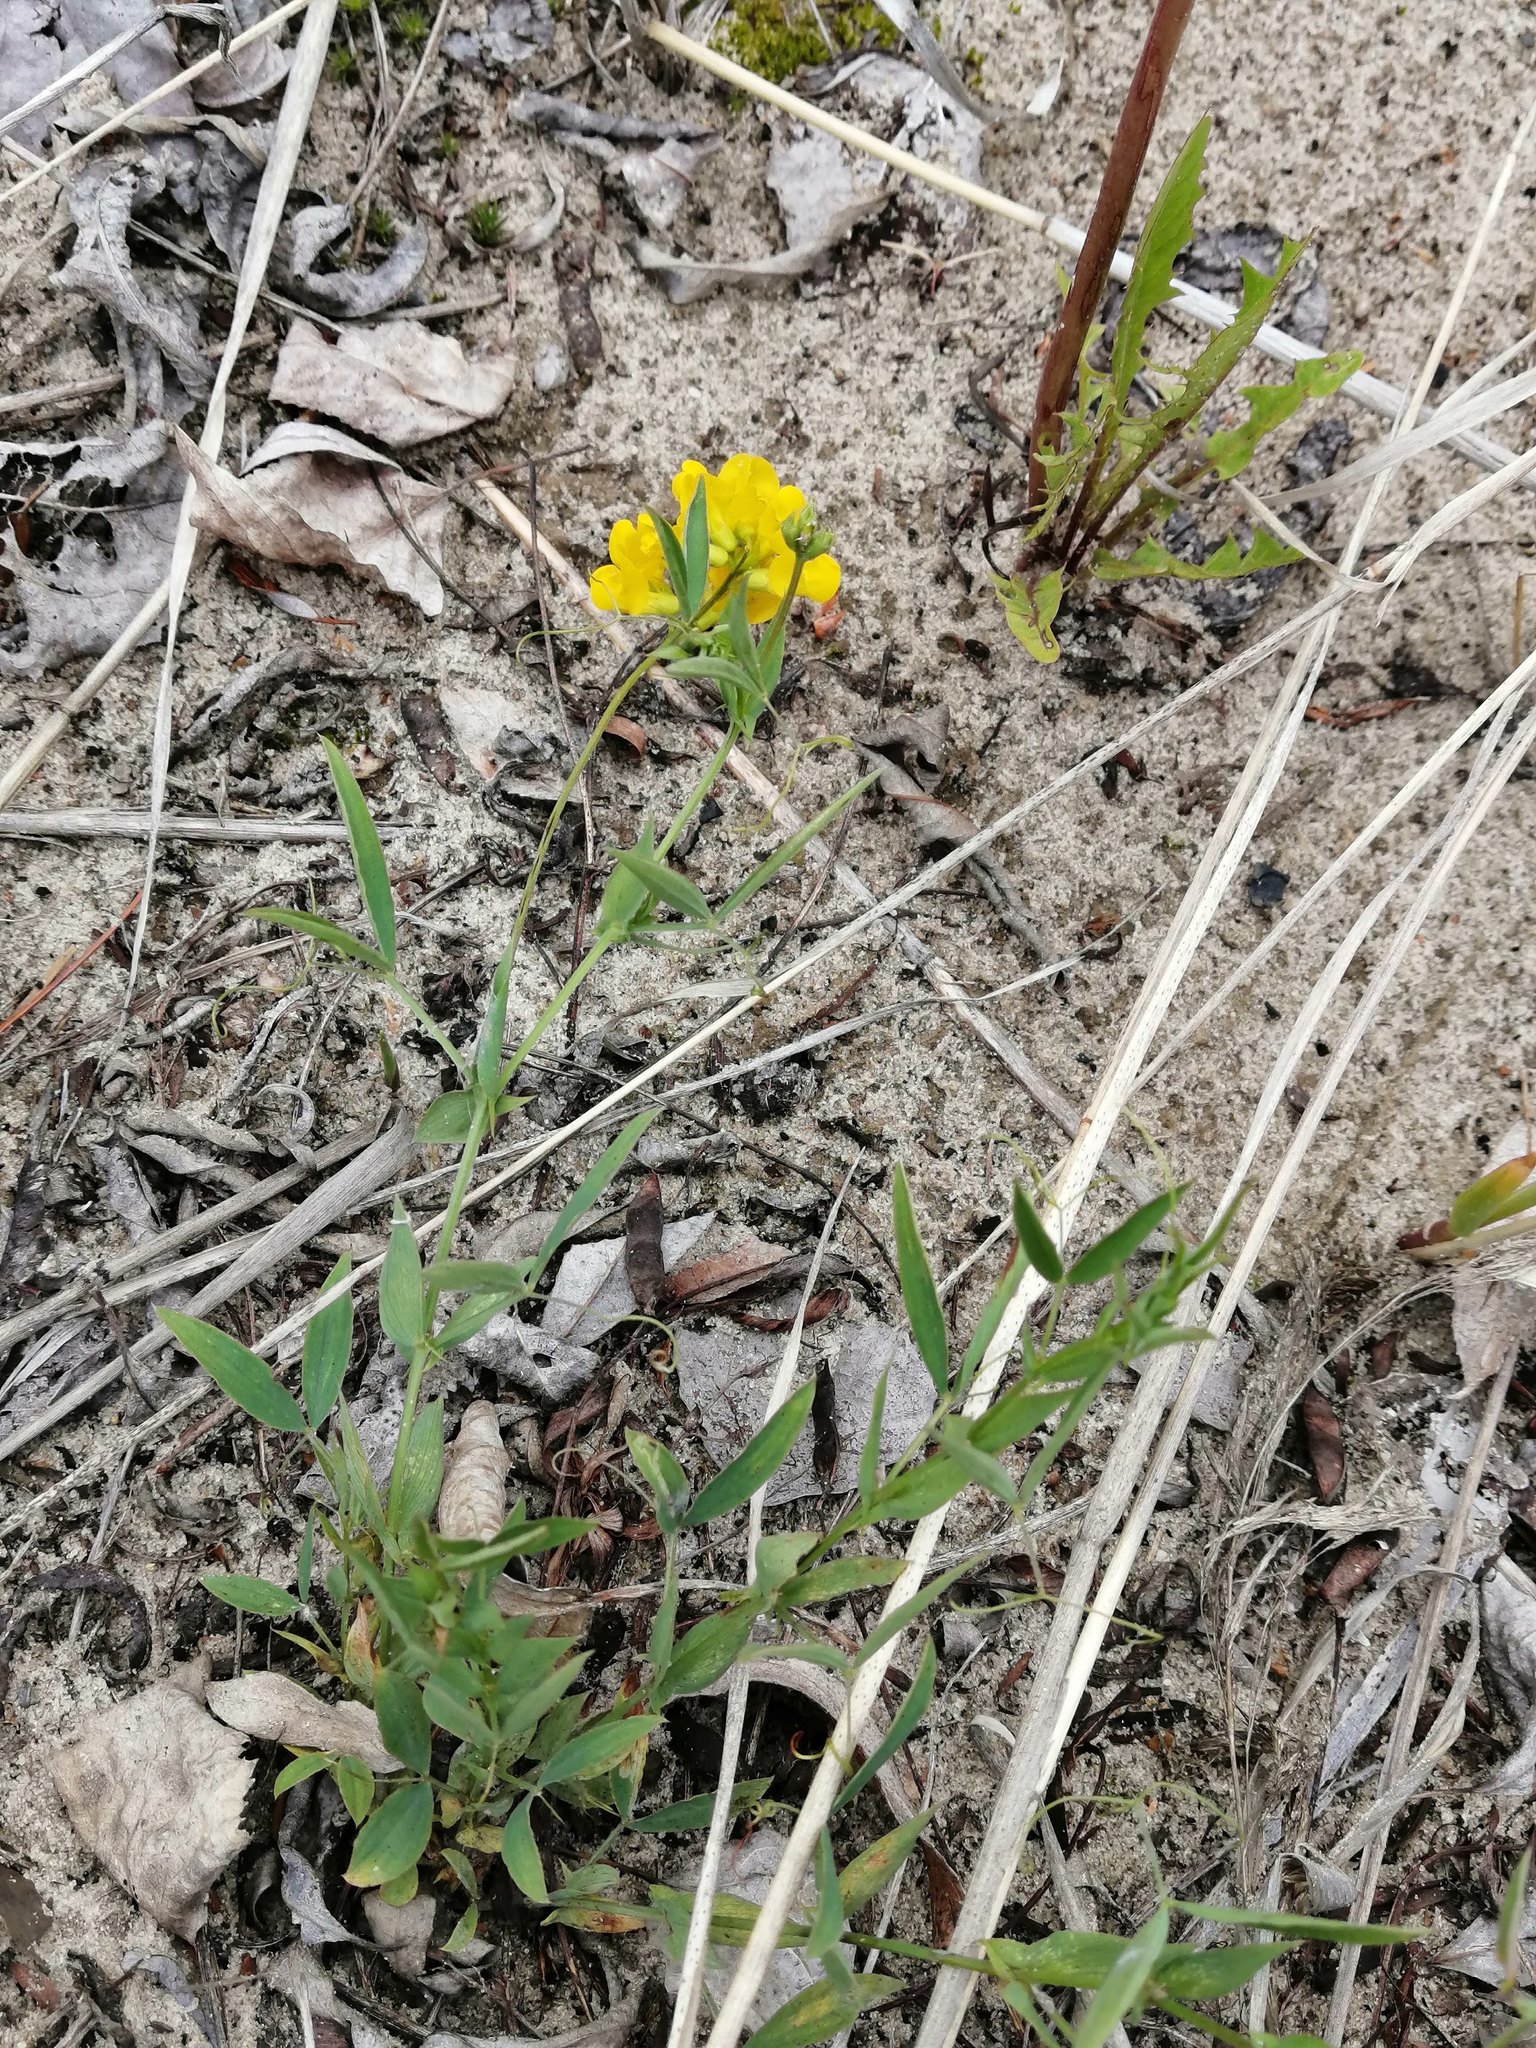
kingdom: Plantae
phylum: Tracheophyta
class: Magnoliopsida
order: Fabales
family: Fabaceae
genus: Lathyrus
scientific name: Lathyrus pratensis
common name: Meadow vetchling
